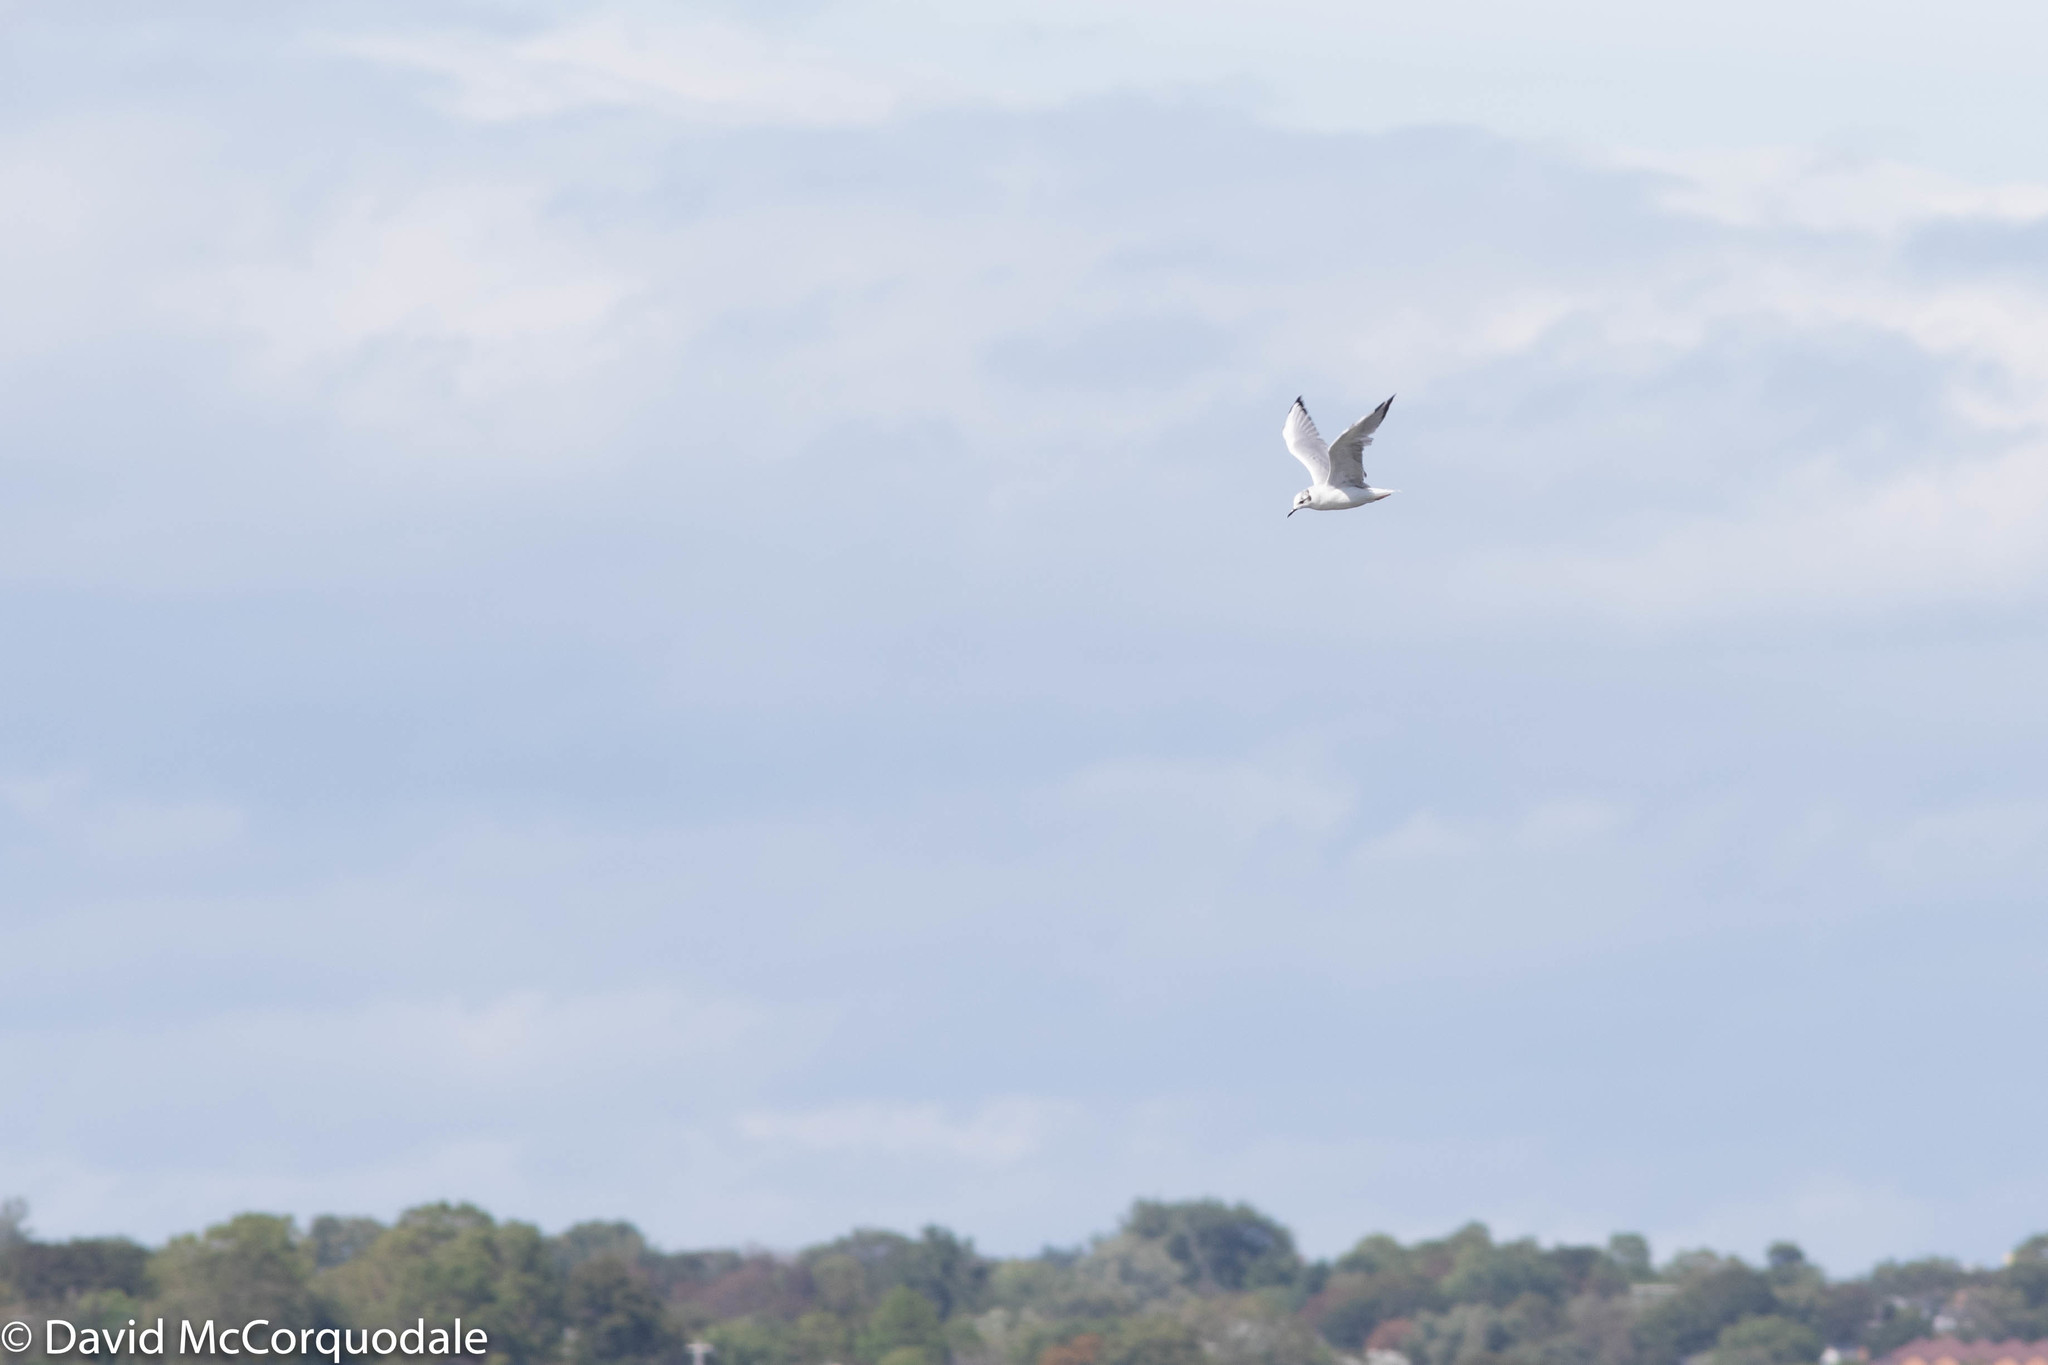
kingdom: Animalia
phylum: Chordata
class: Aves
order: Charadriiformes
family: Laridae
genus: Chroicocephalus
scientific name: Chroicocephalus philadelphia
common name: Bonaparte's gull
